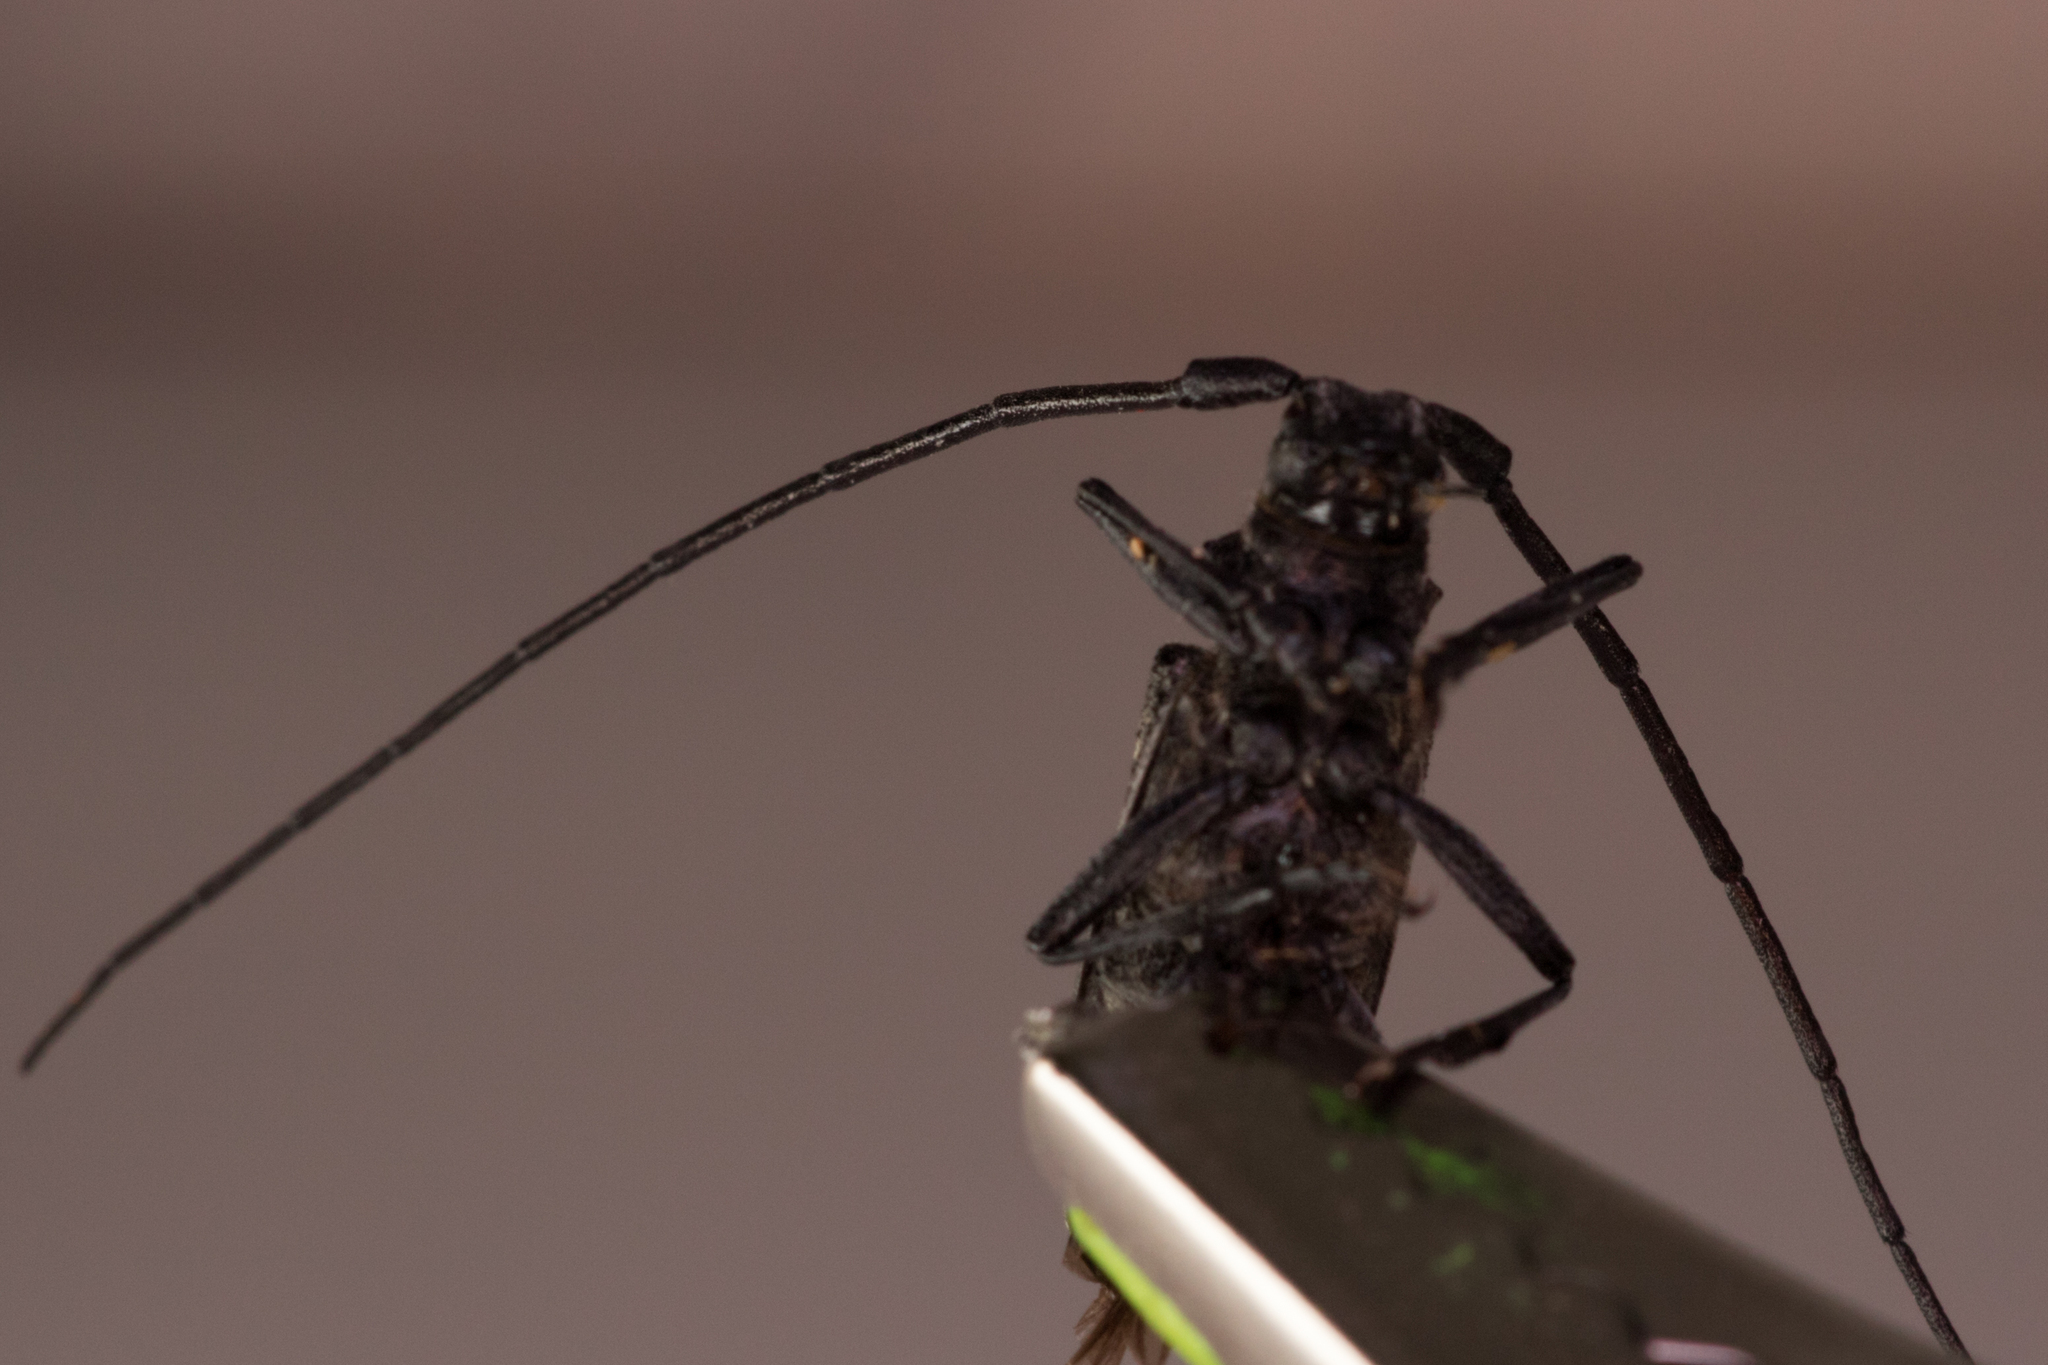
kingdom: Animalia
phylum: Arthropoda
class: Insecta
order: Coleoptera
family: Cerambycidae
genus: Monochamus
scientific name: Monochamus sutor
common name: Pine sawyer
